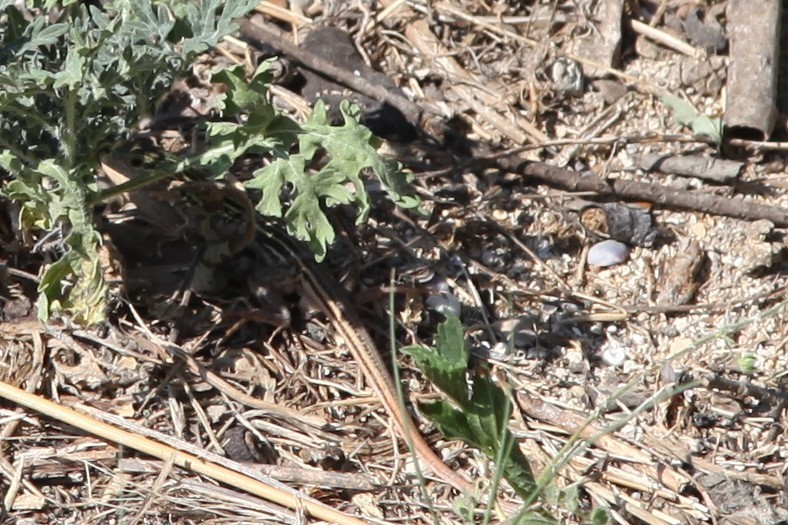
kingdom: Animalia
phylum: Chordata
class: Squamata
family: Teiidae
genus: Aspidoscelis
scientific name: Aspidoscelis gularis
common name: Eastern spotted whiptail
